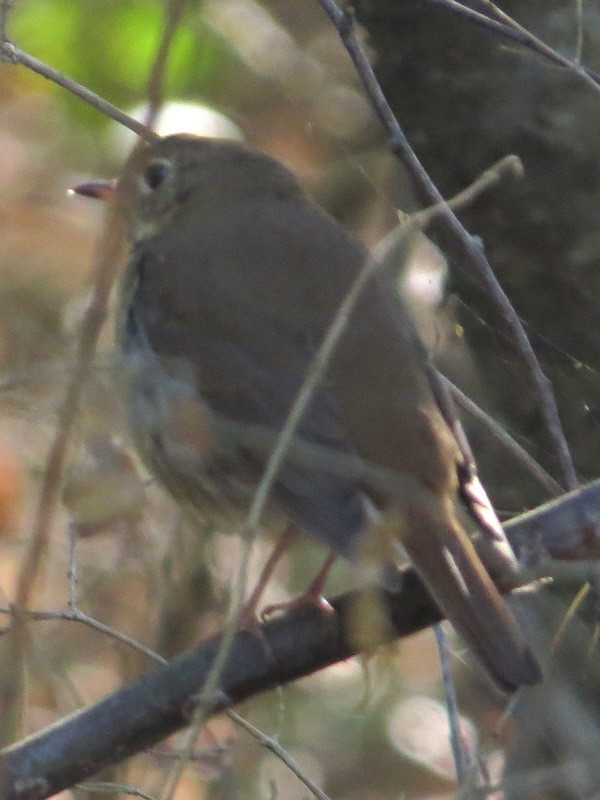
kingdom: Animalia
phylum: Chordata
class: Aves
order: Passeriformes
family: Turdidae
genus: Catharus
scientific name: Catharus guttatus
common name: Hermit thrush
